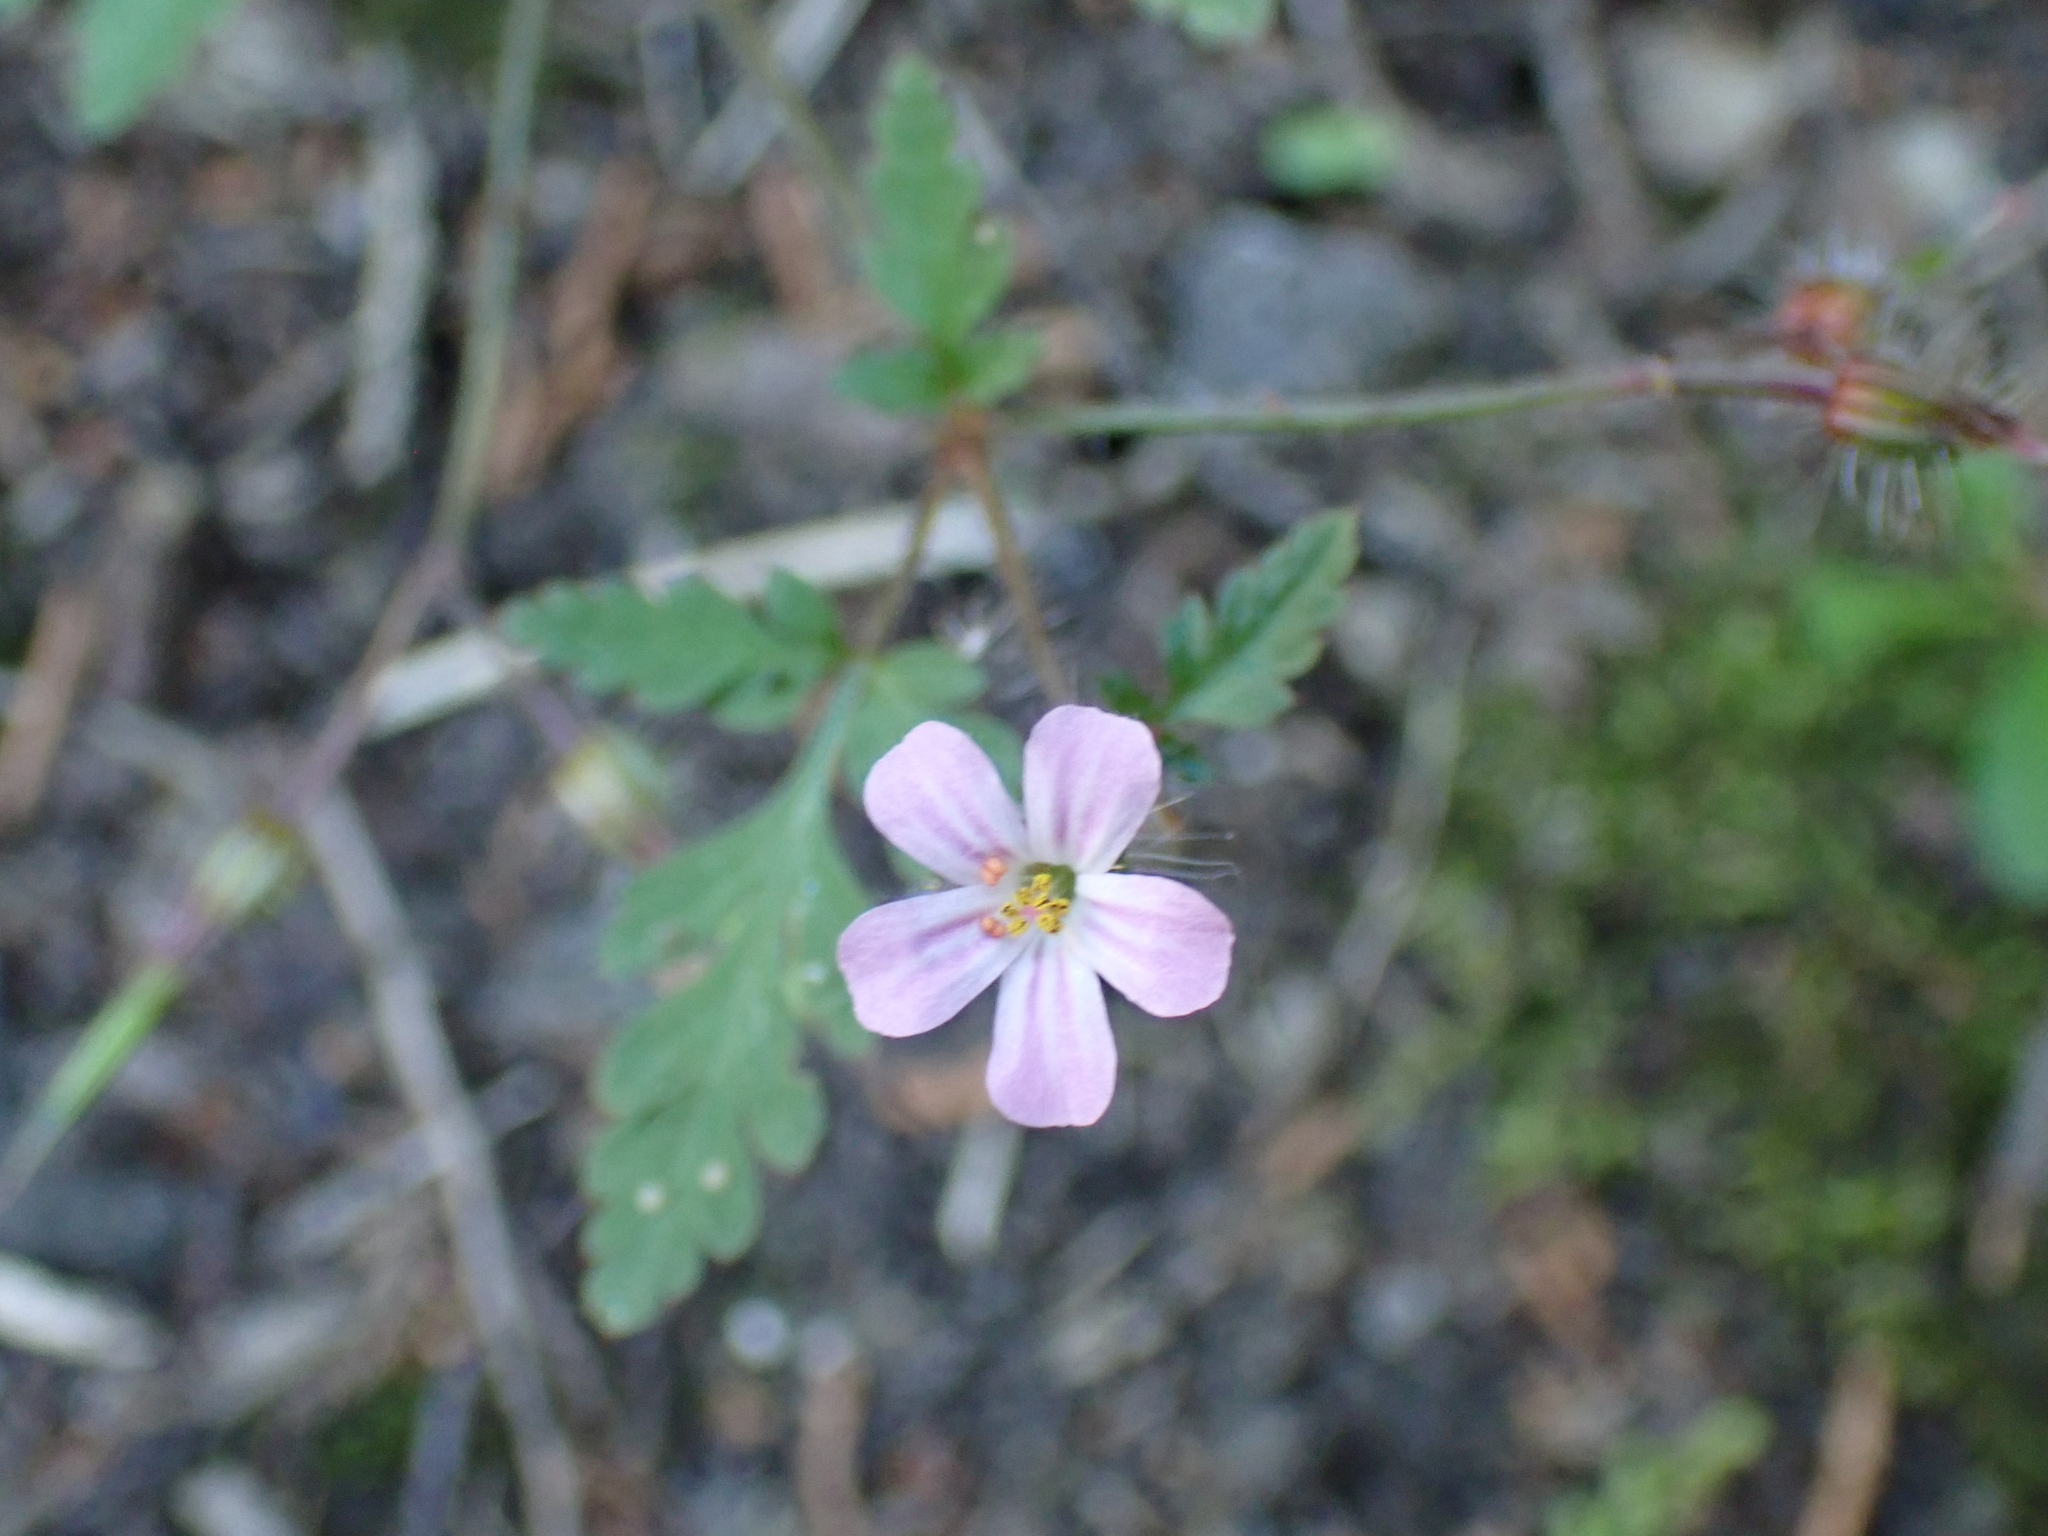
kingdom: Plantae
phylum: Tracheophyta
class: Magnoliopsida
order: Geraniales
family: Geraniaceae
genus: Geranium
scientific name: Geranium robertianum
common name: Herb-robert
